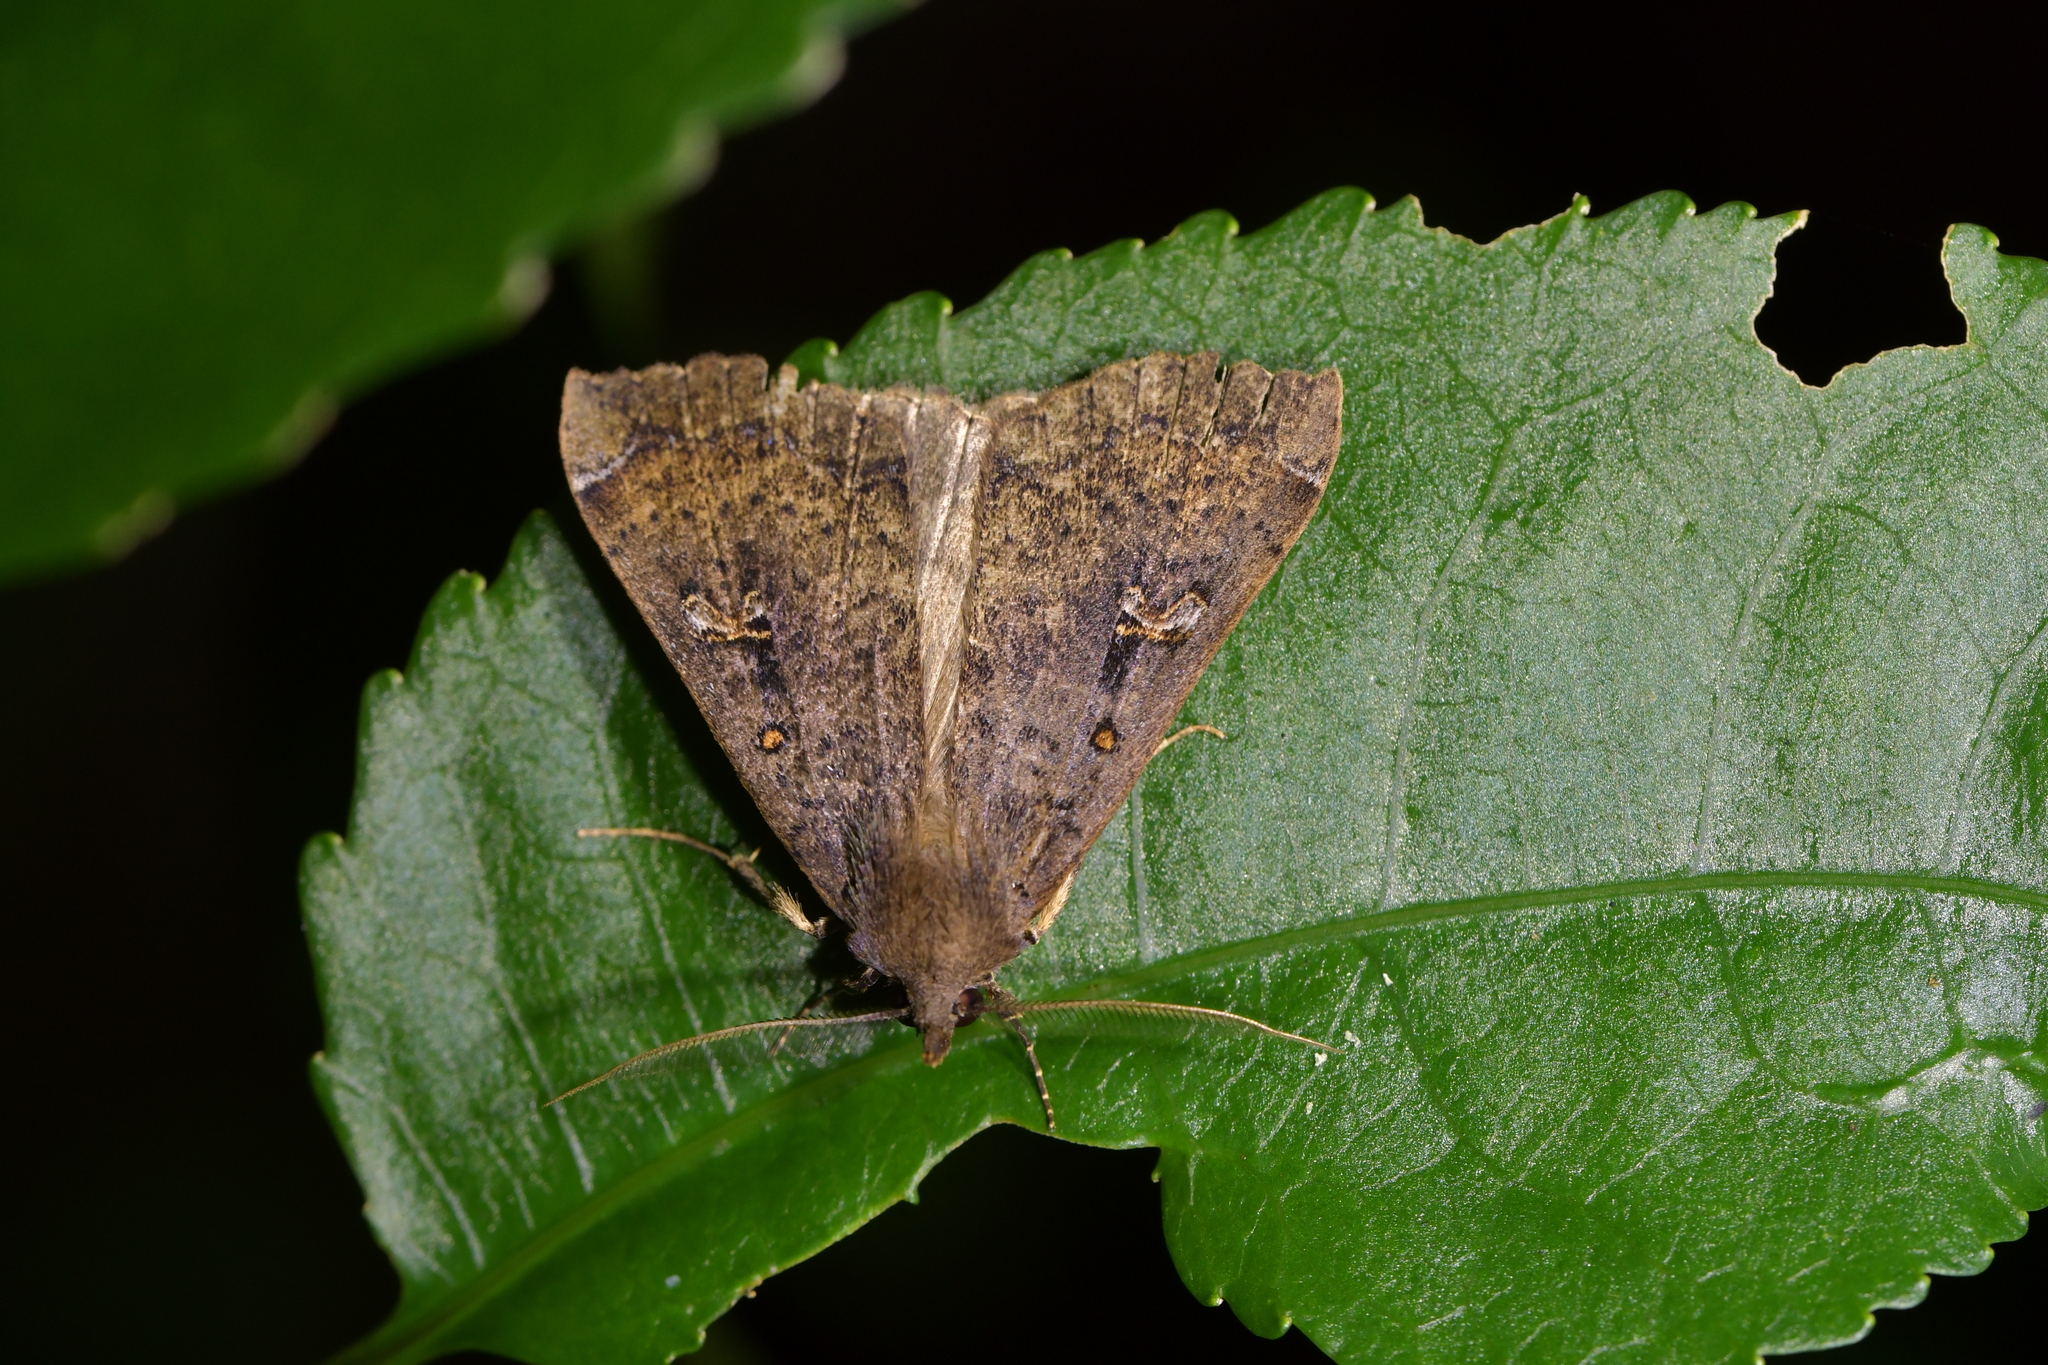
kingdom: Animalia
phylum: Arthropoda
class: Insecta
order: Lepidoptera
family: Erebidae
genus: Rhapsa
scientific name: Rhapsa scotosialis
